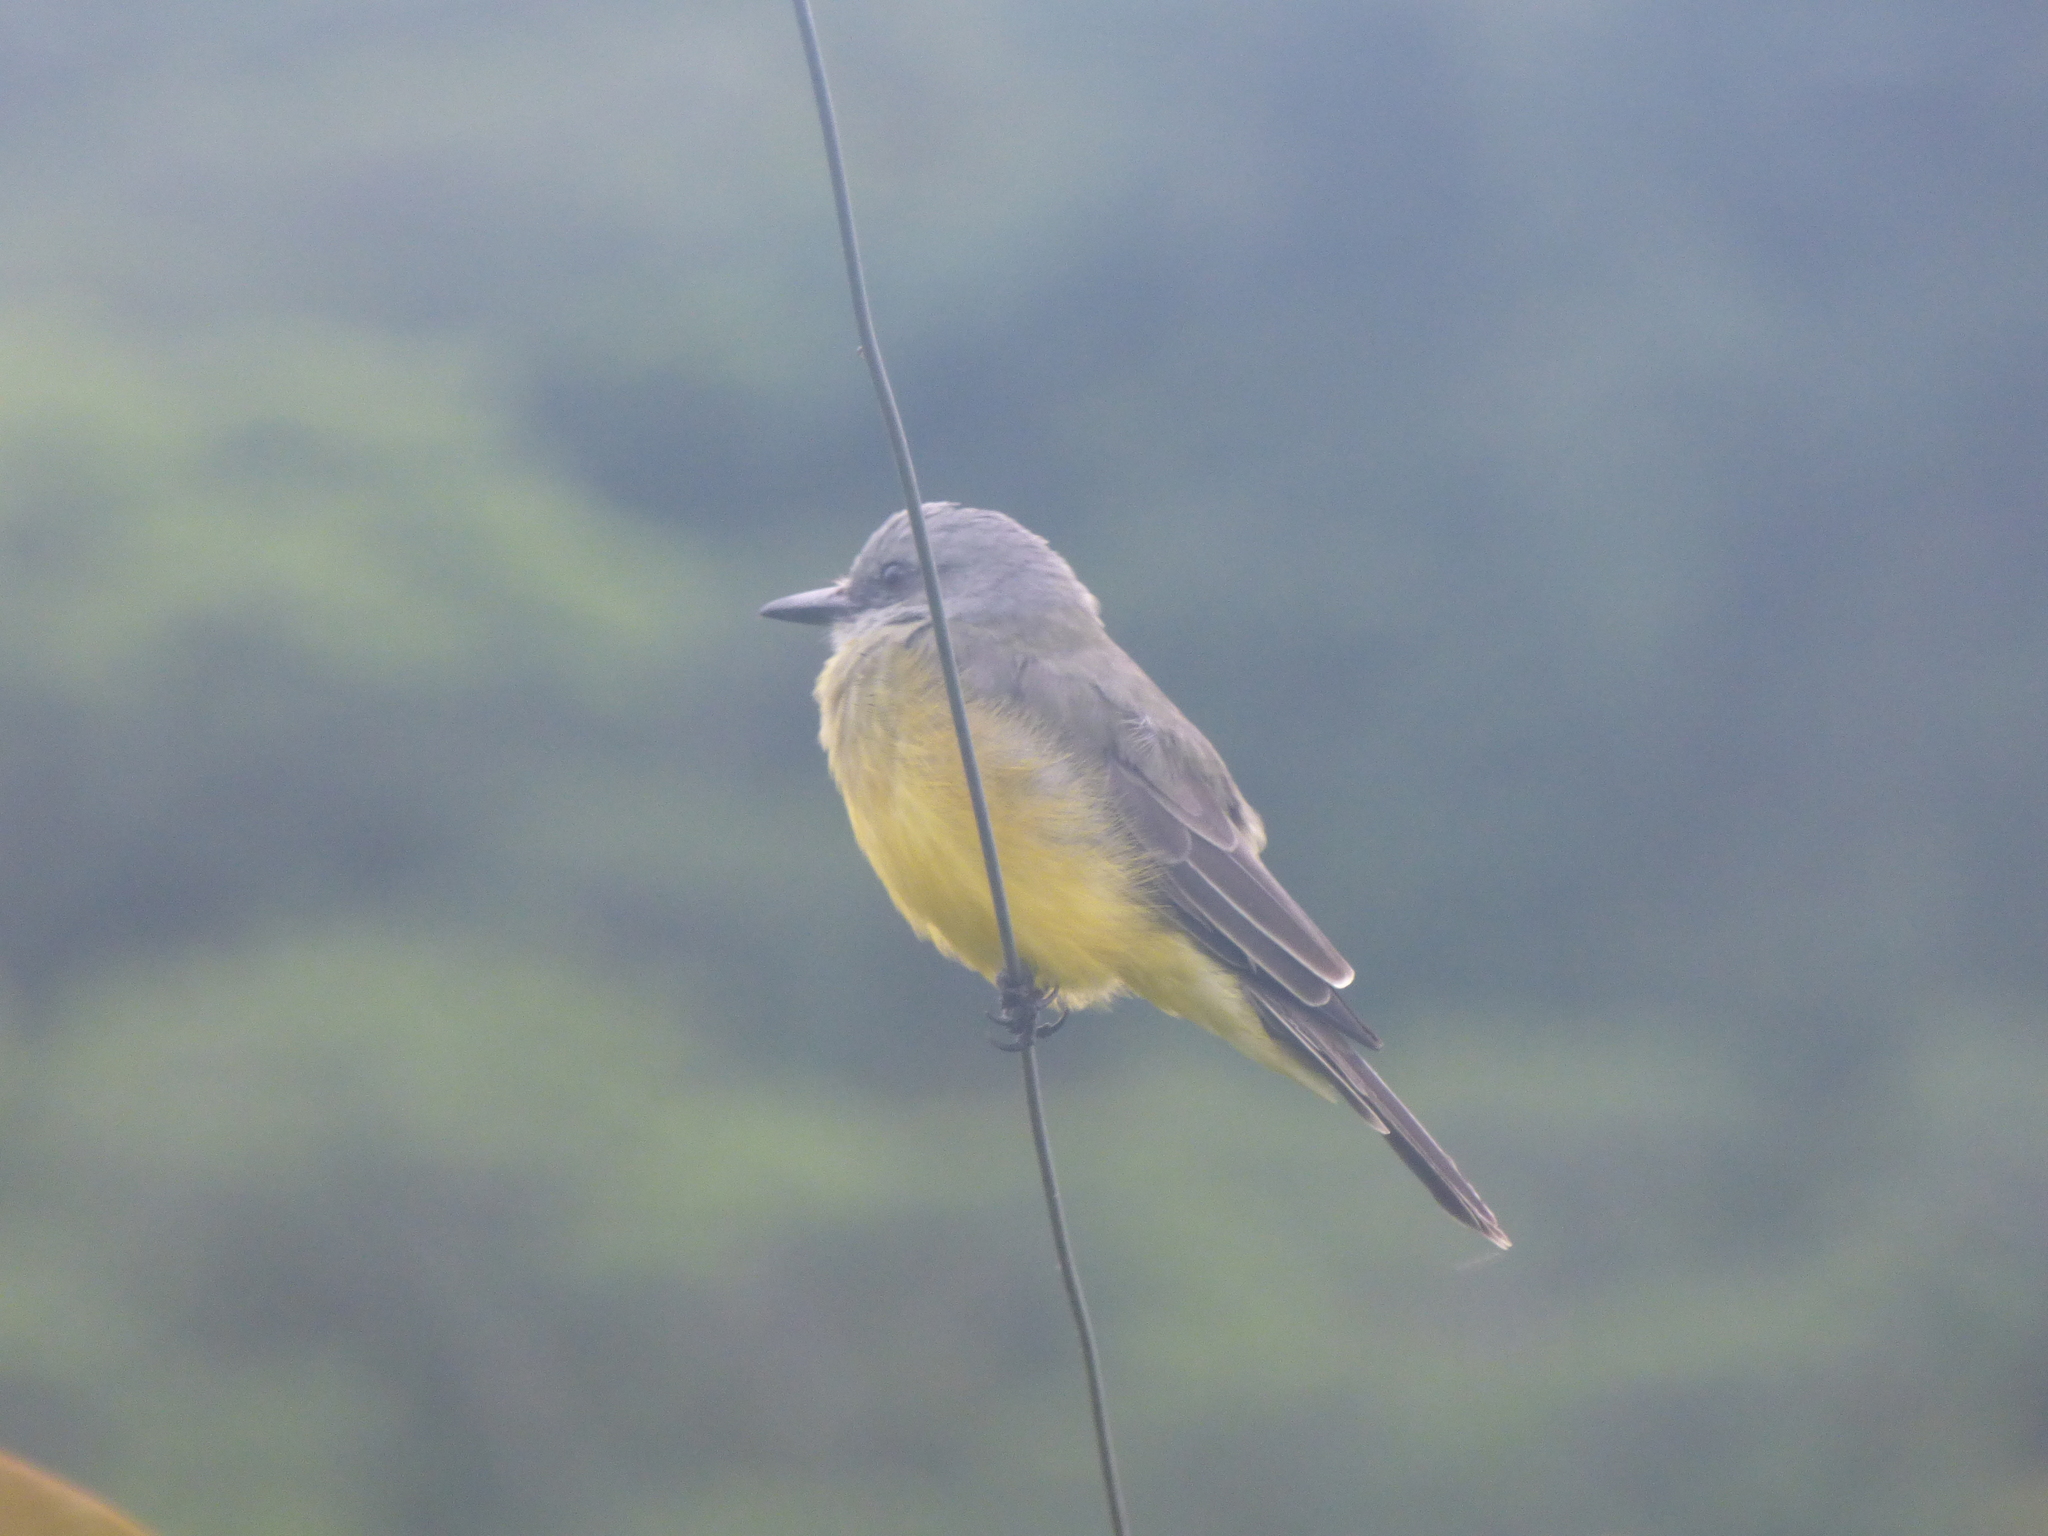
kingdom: Animalia
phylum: Chordata
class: Aves
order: Passeriformes
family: Tyrannidae
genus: Tyrannus
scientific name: Tyrannus melancholicus
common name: Tropical kingbird
